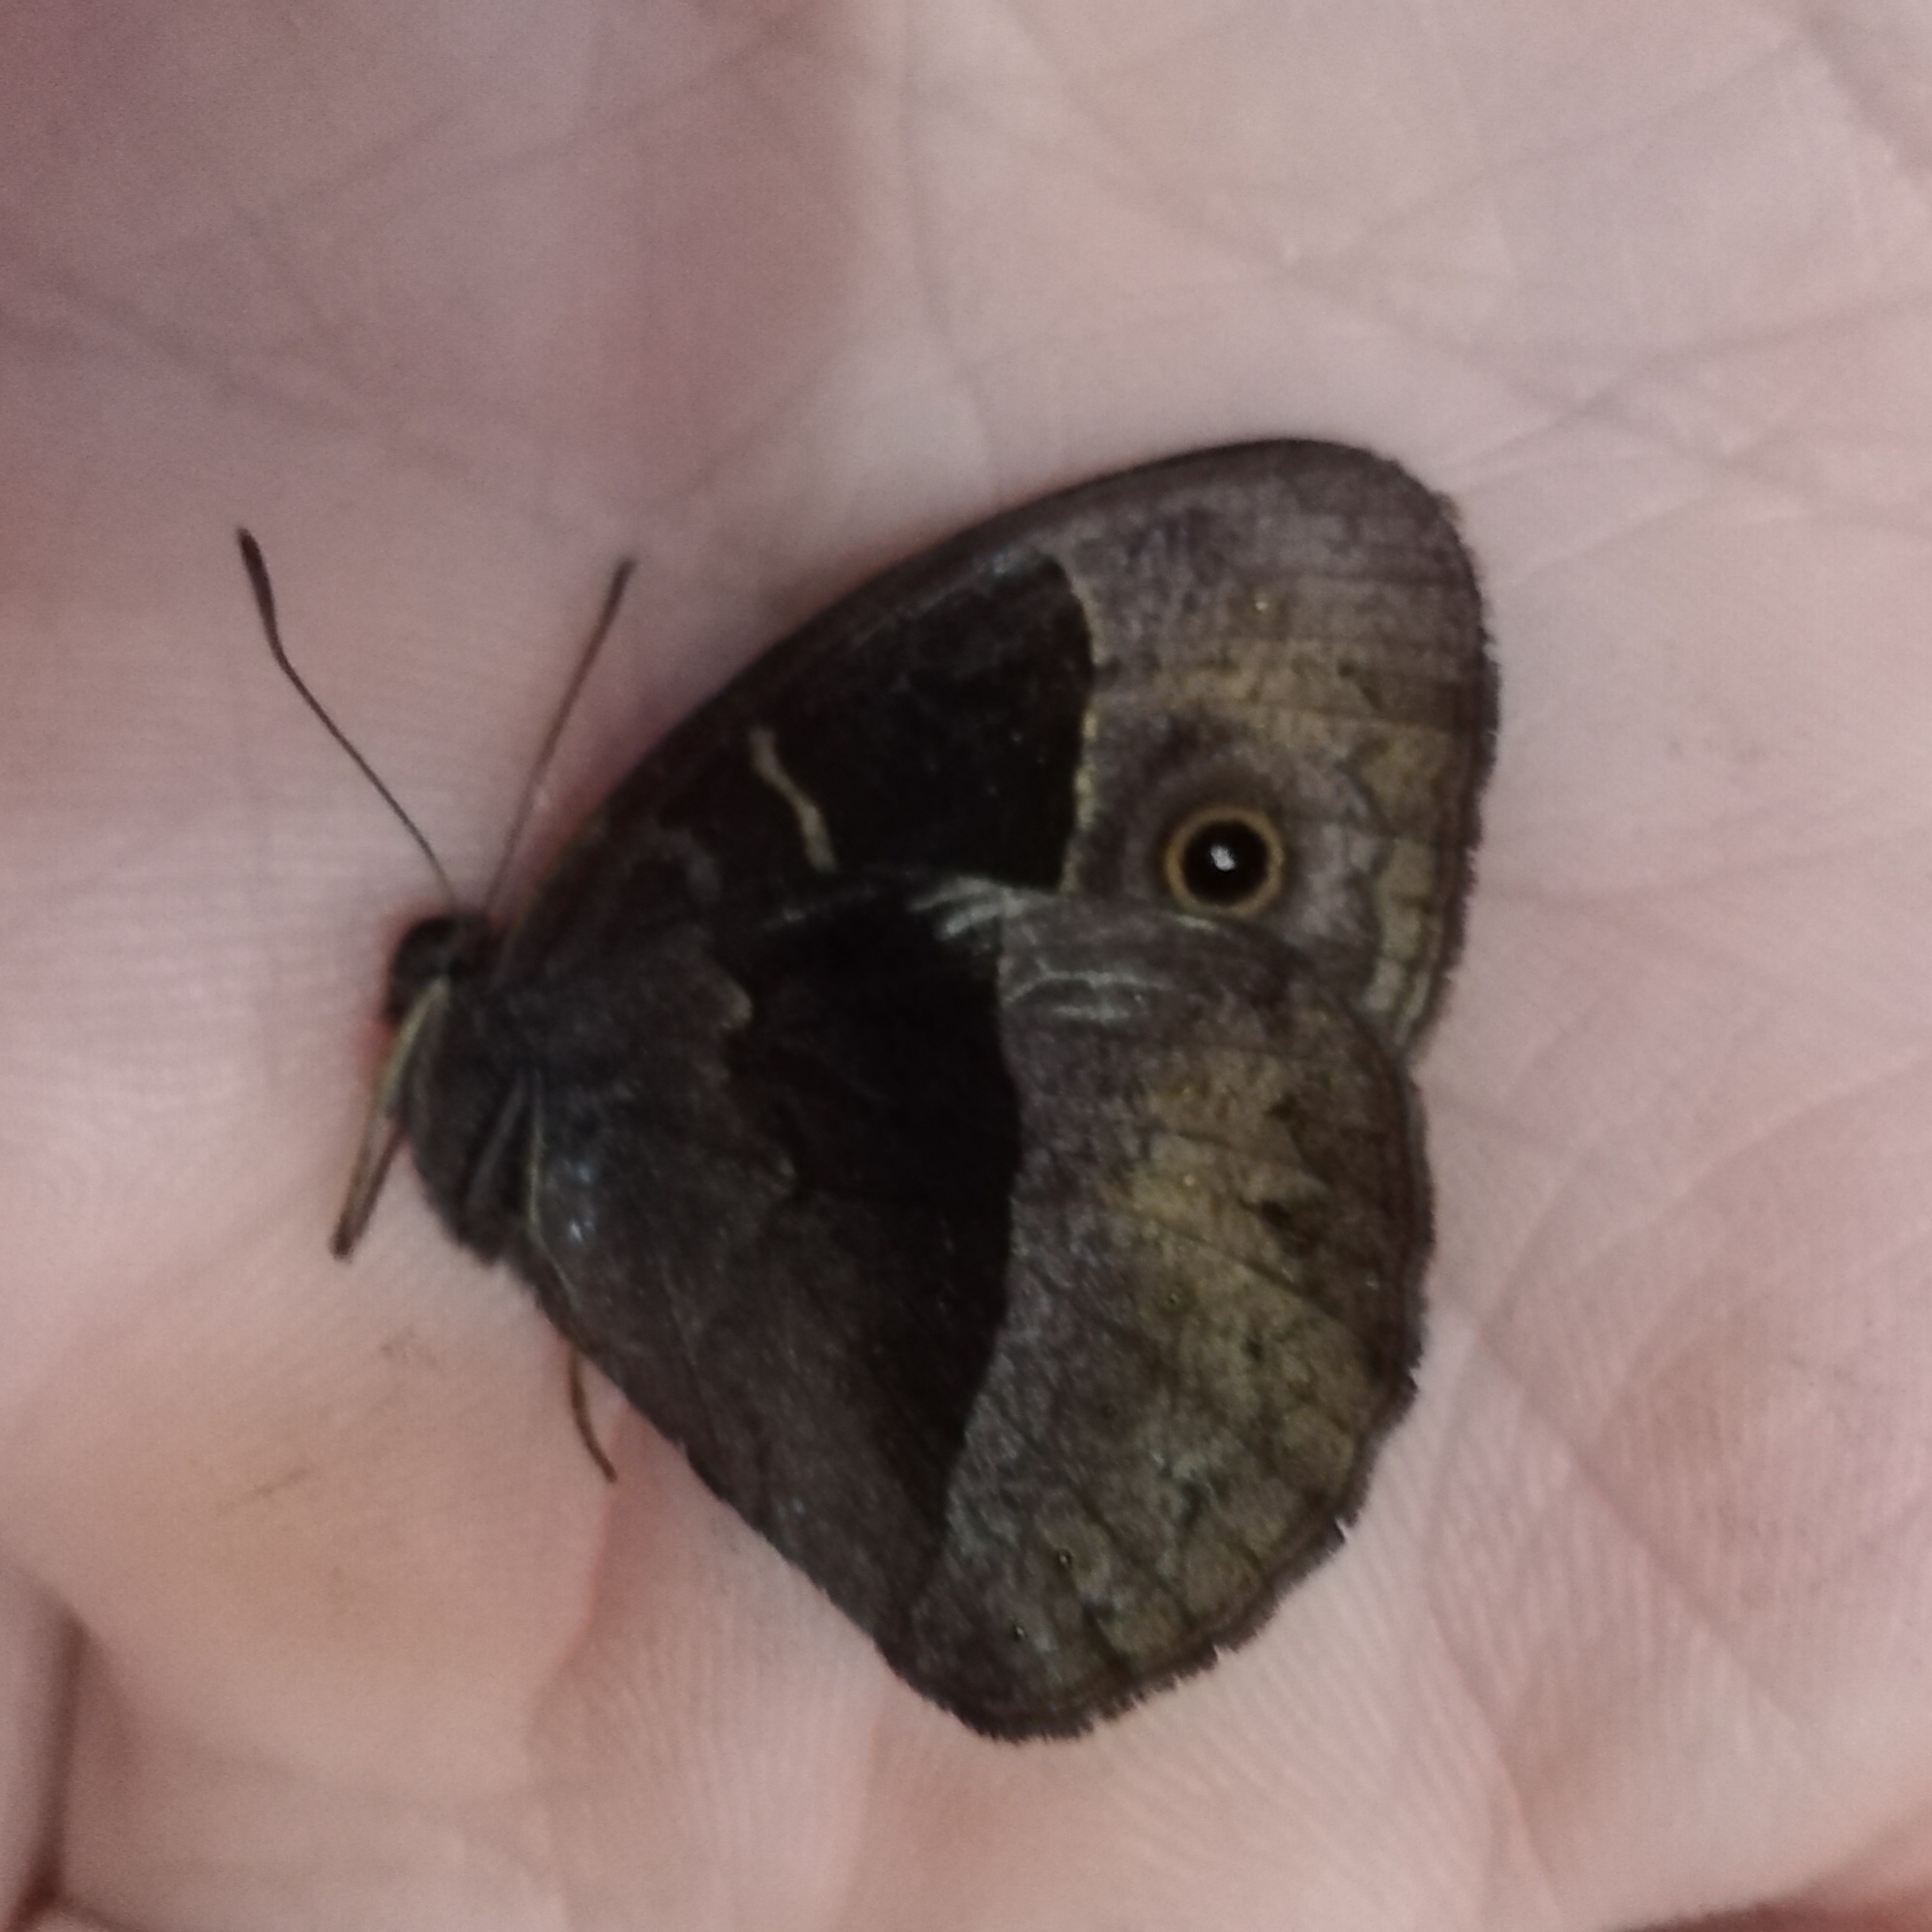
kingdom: Animalia
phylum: Arthropoda
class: Insecta
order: Lepidoptera
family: Nymphalidae
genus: Mycalesis
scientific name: Mycalesis rhacotis
